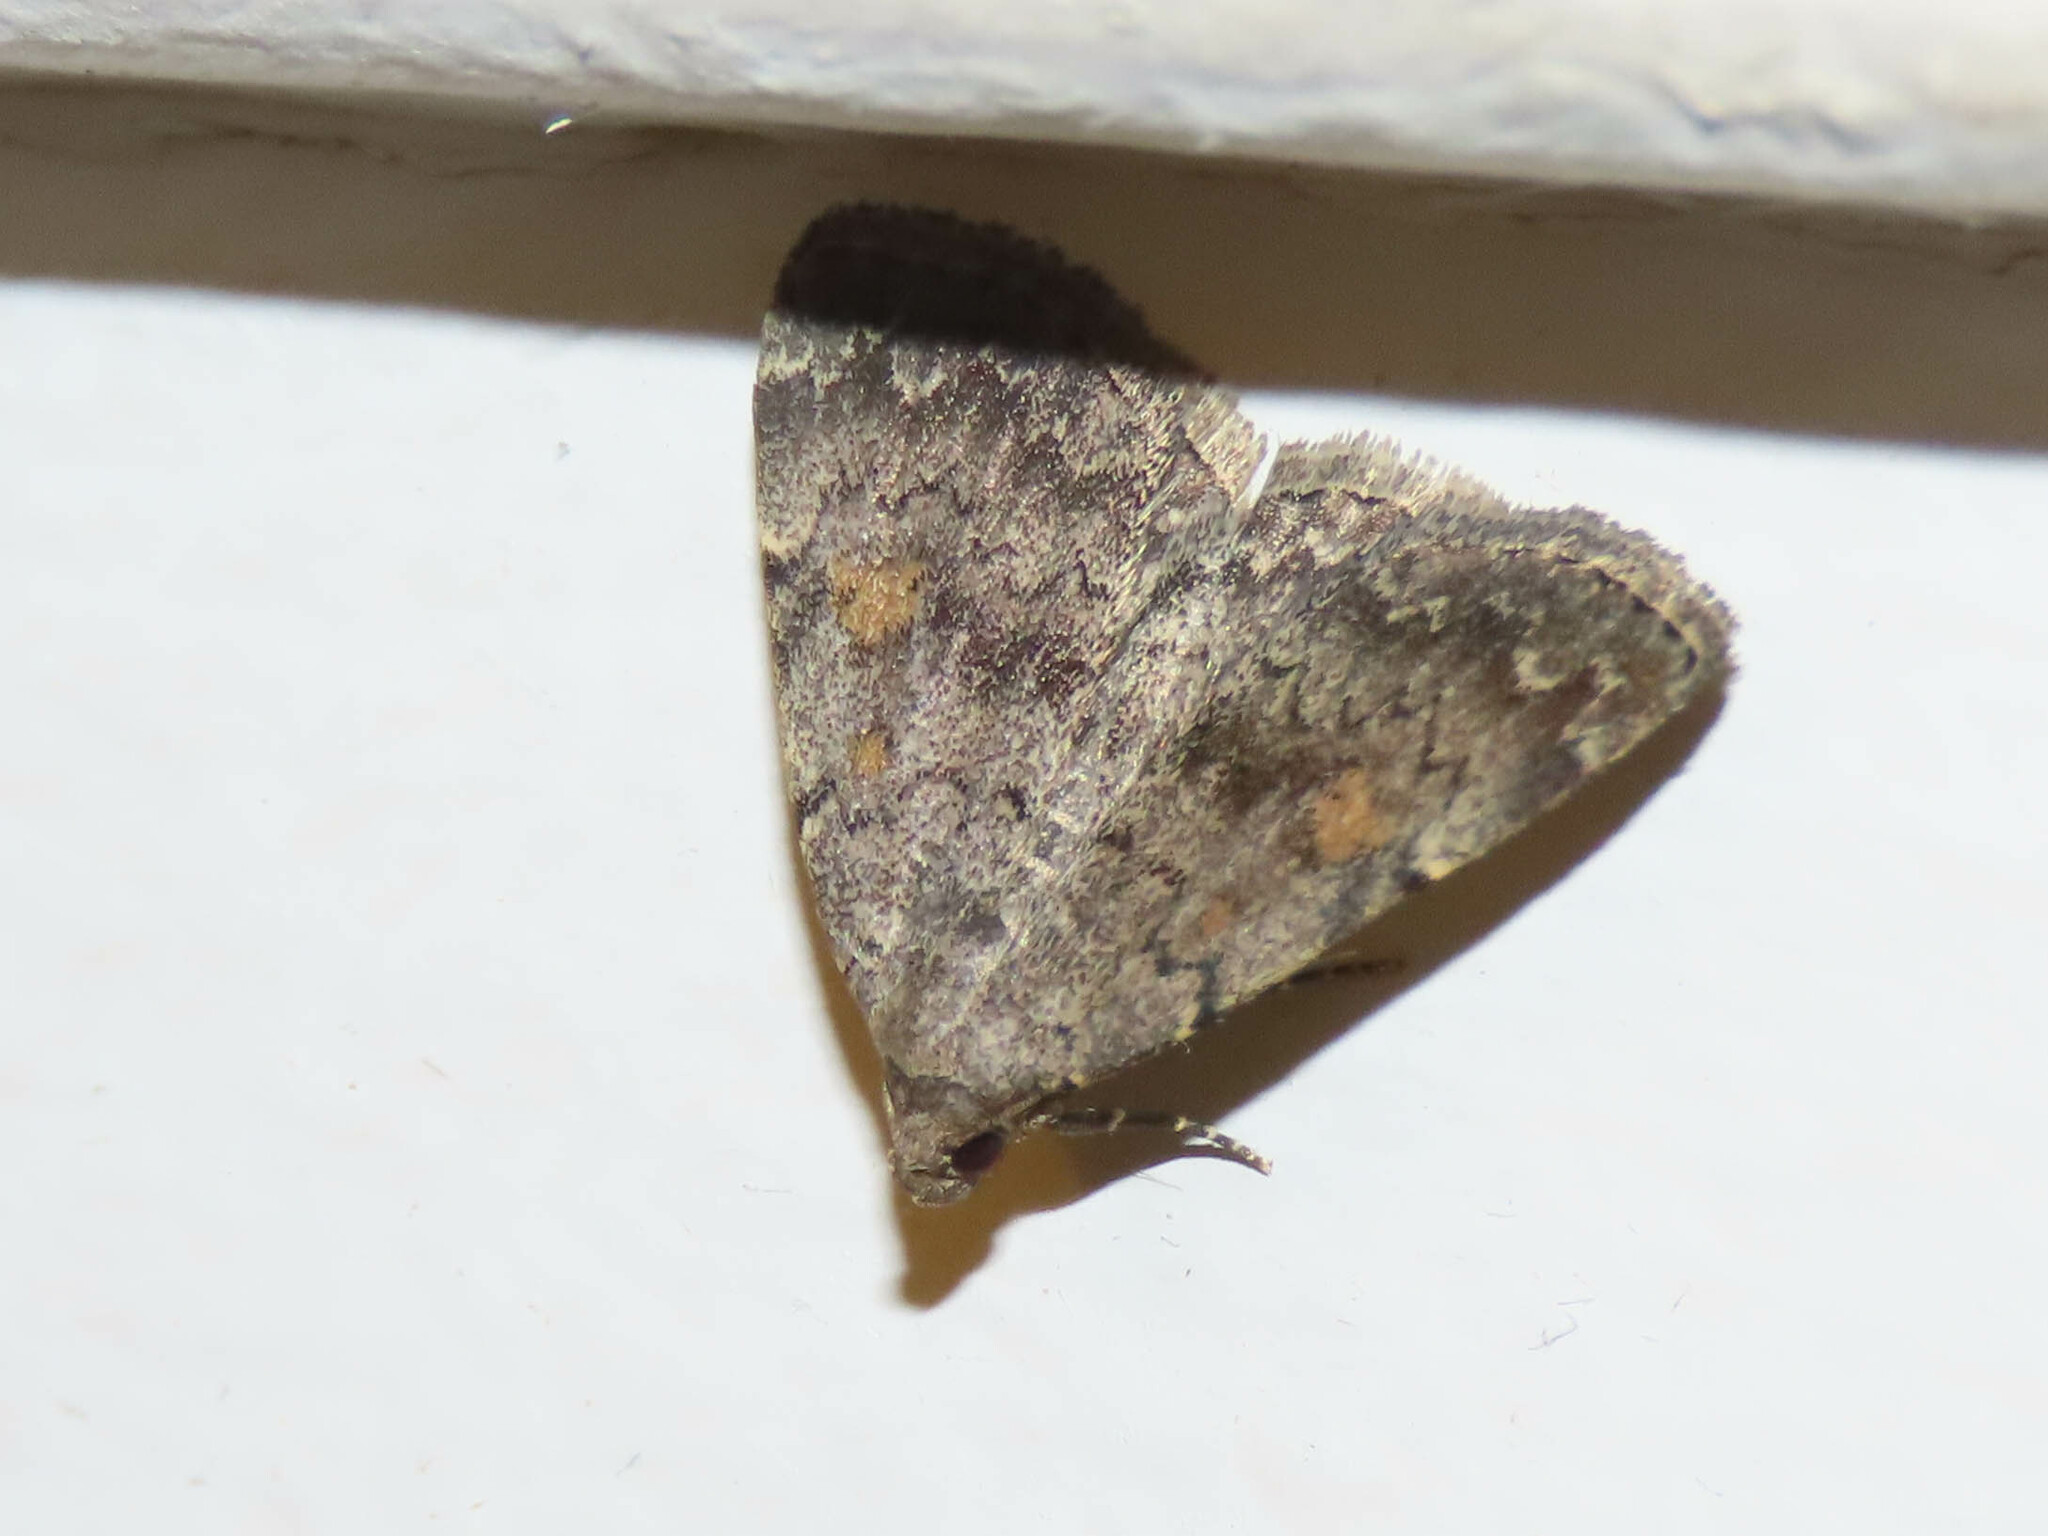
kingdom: Animalia
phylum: Arthropoda
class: Insecta
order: Lepidoptera
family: Erebidae
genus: Idia
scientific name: Idia aemula
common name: Common idia moth
